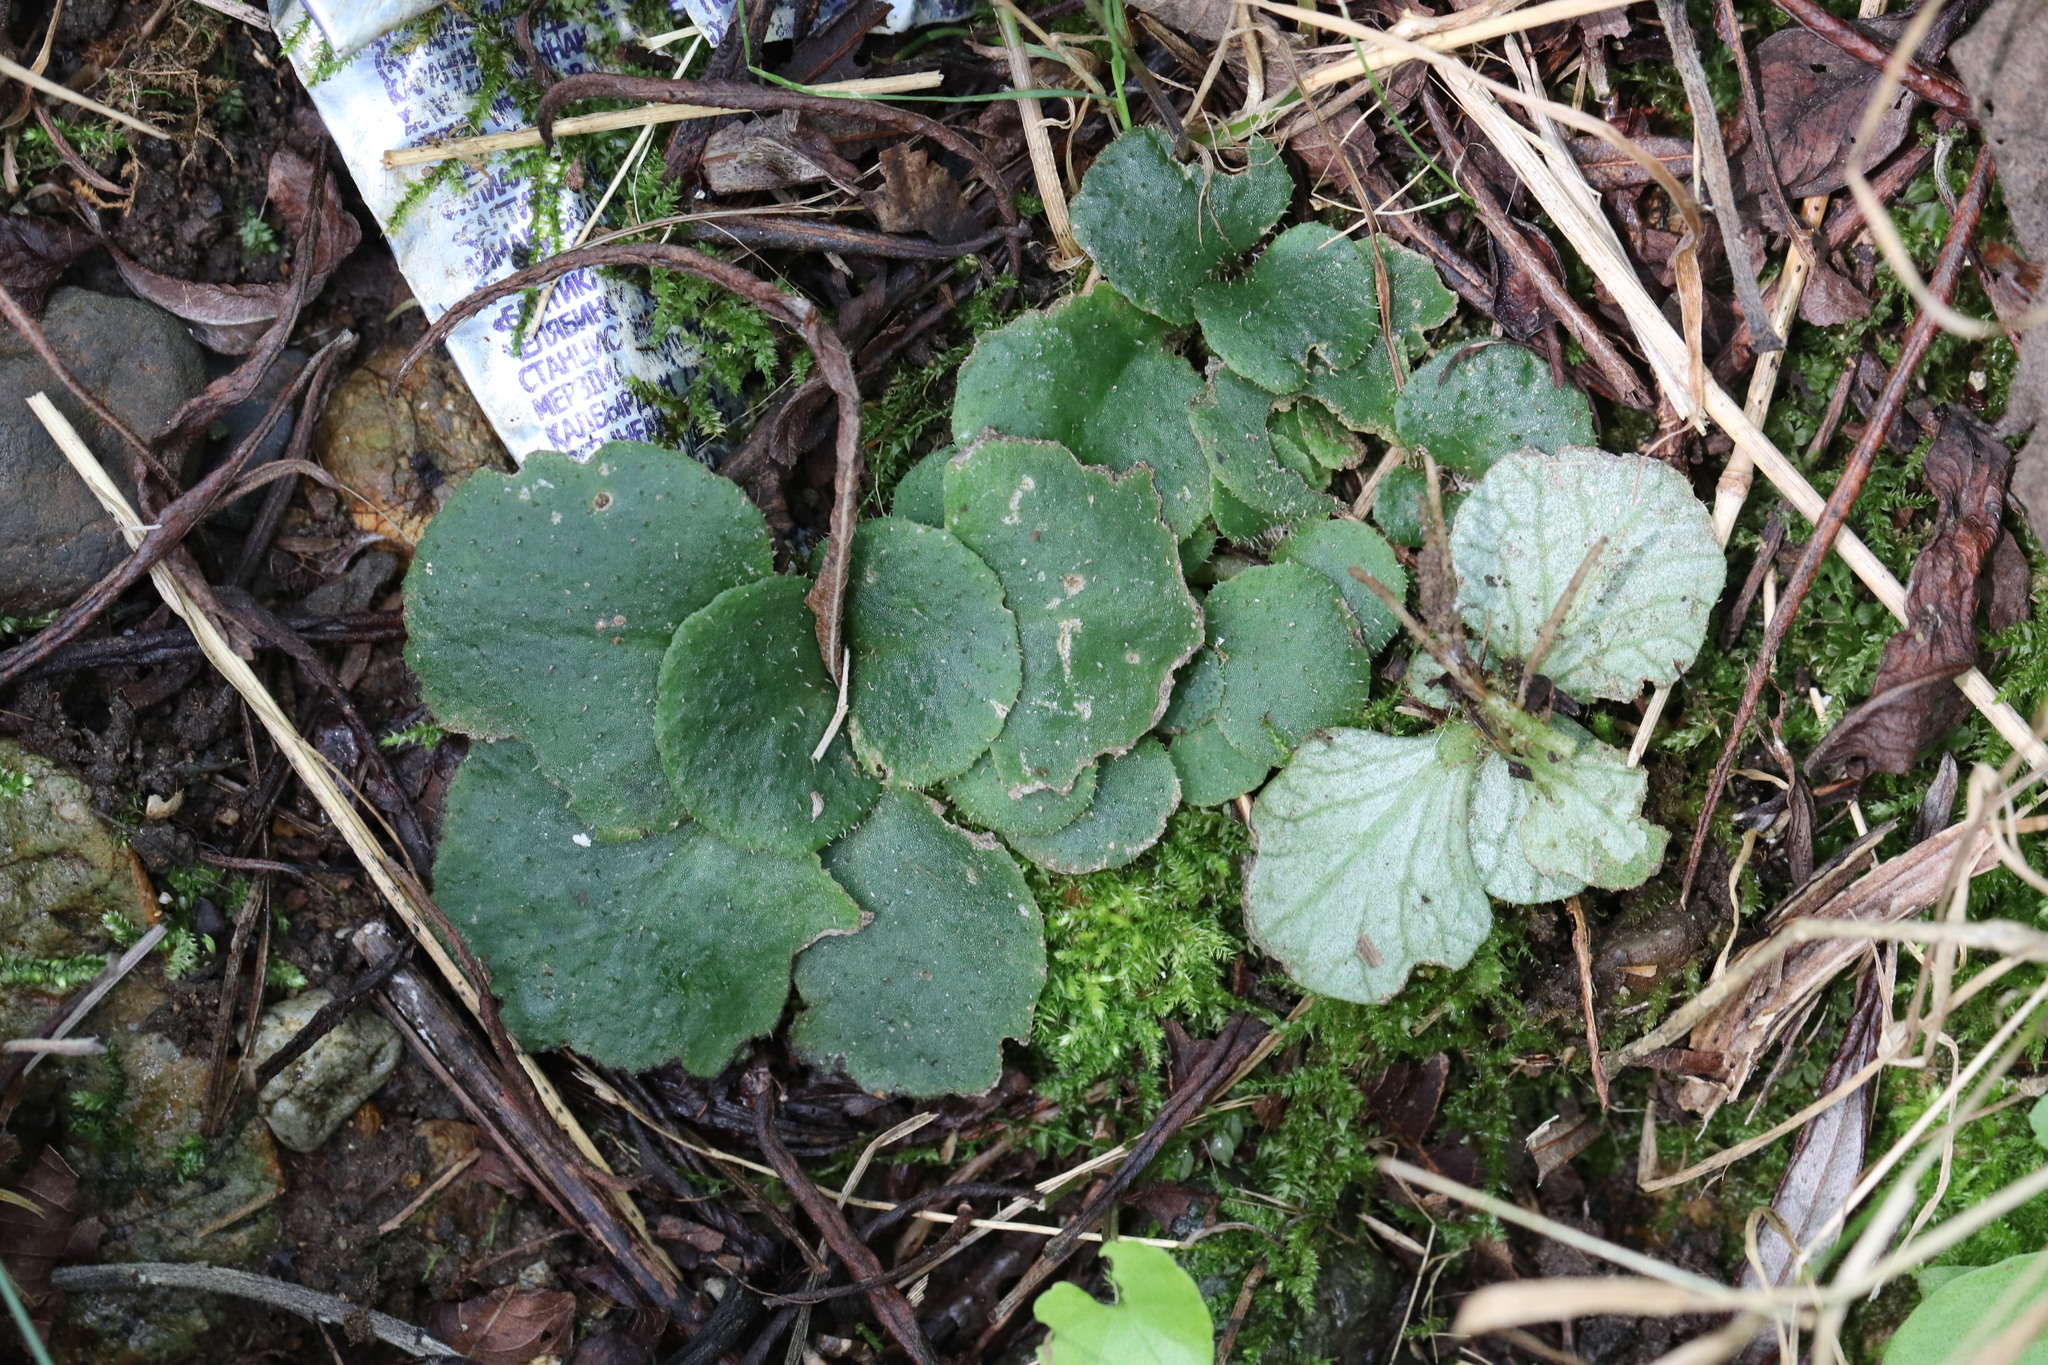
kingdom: Plantae
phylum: Tracheophyta
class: Magnoliopsida
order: Saxifragales
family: Saxifragaceae
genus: Chrysosplenium
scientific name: Chrysosplenium pilosum
